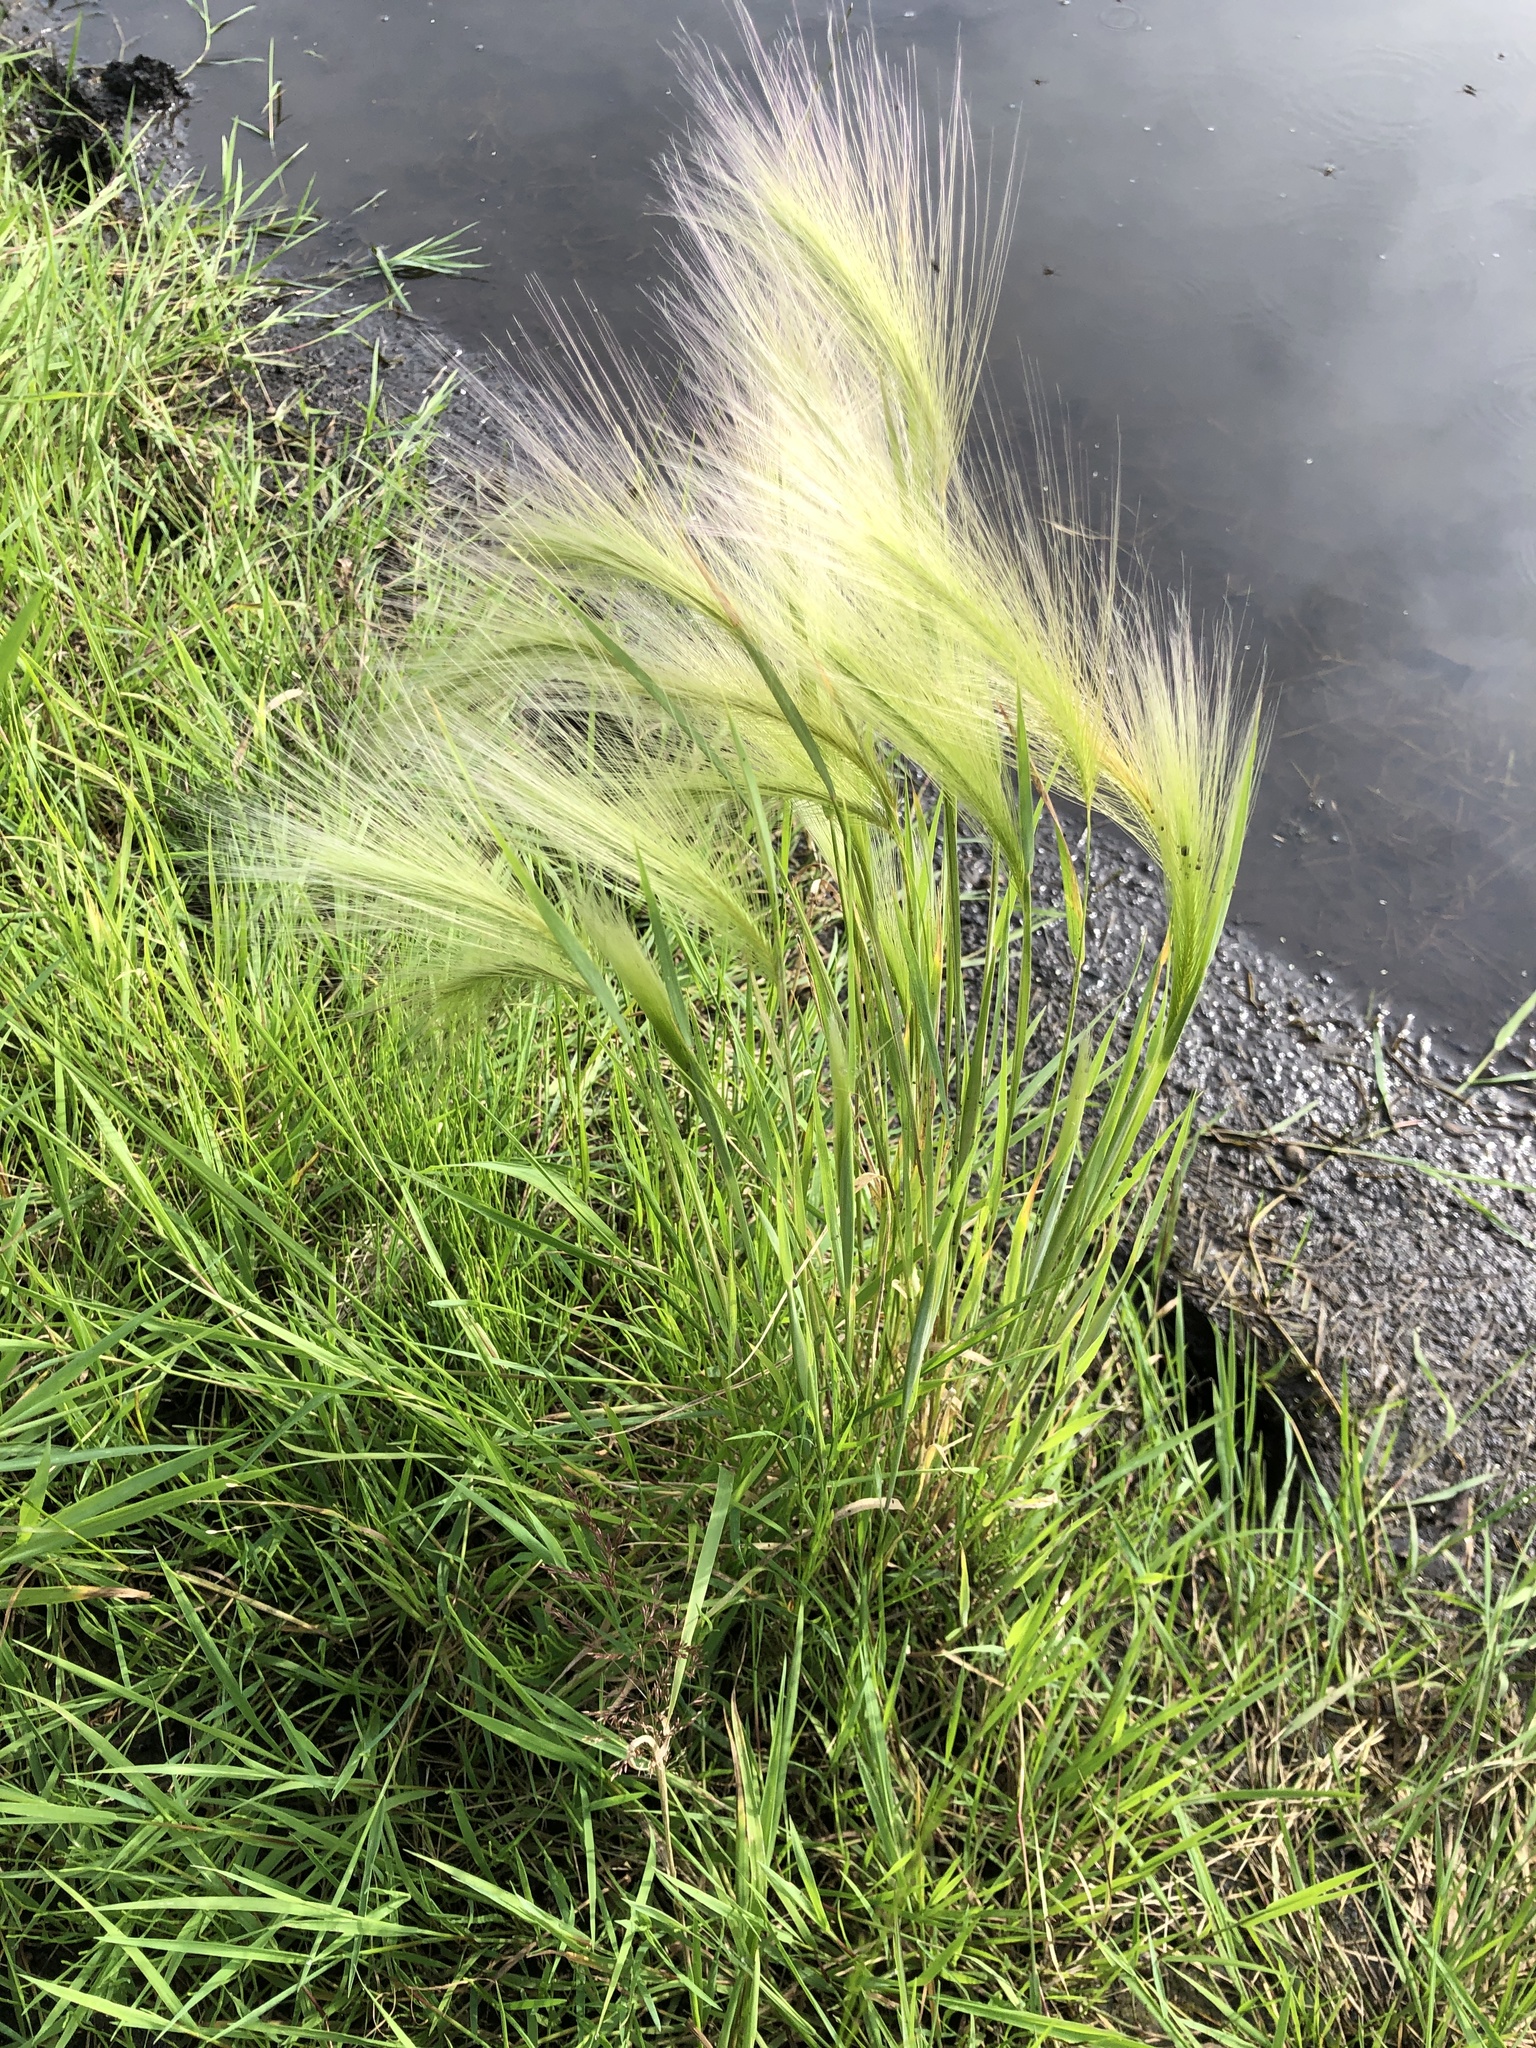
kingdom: Plantae
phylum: Tracheophyta
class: Liliopsida
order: Poales
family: Poaceae
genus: Hordeum
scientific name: Hordeum jubatum
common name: Foxtail barley
